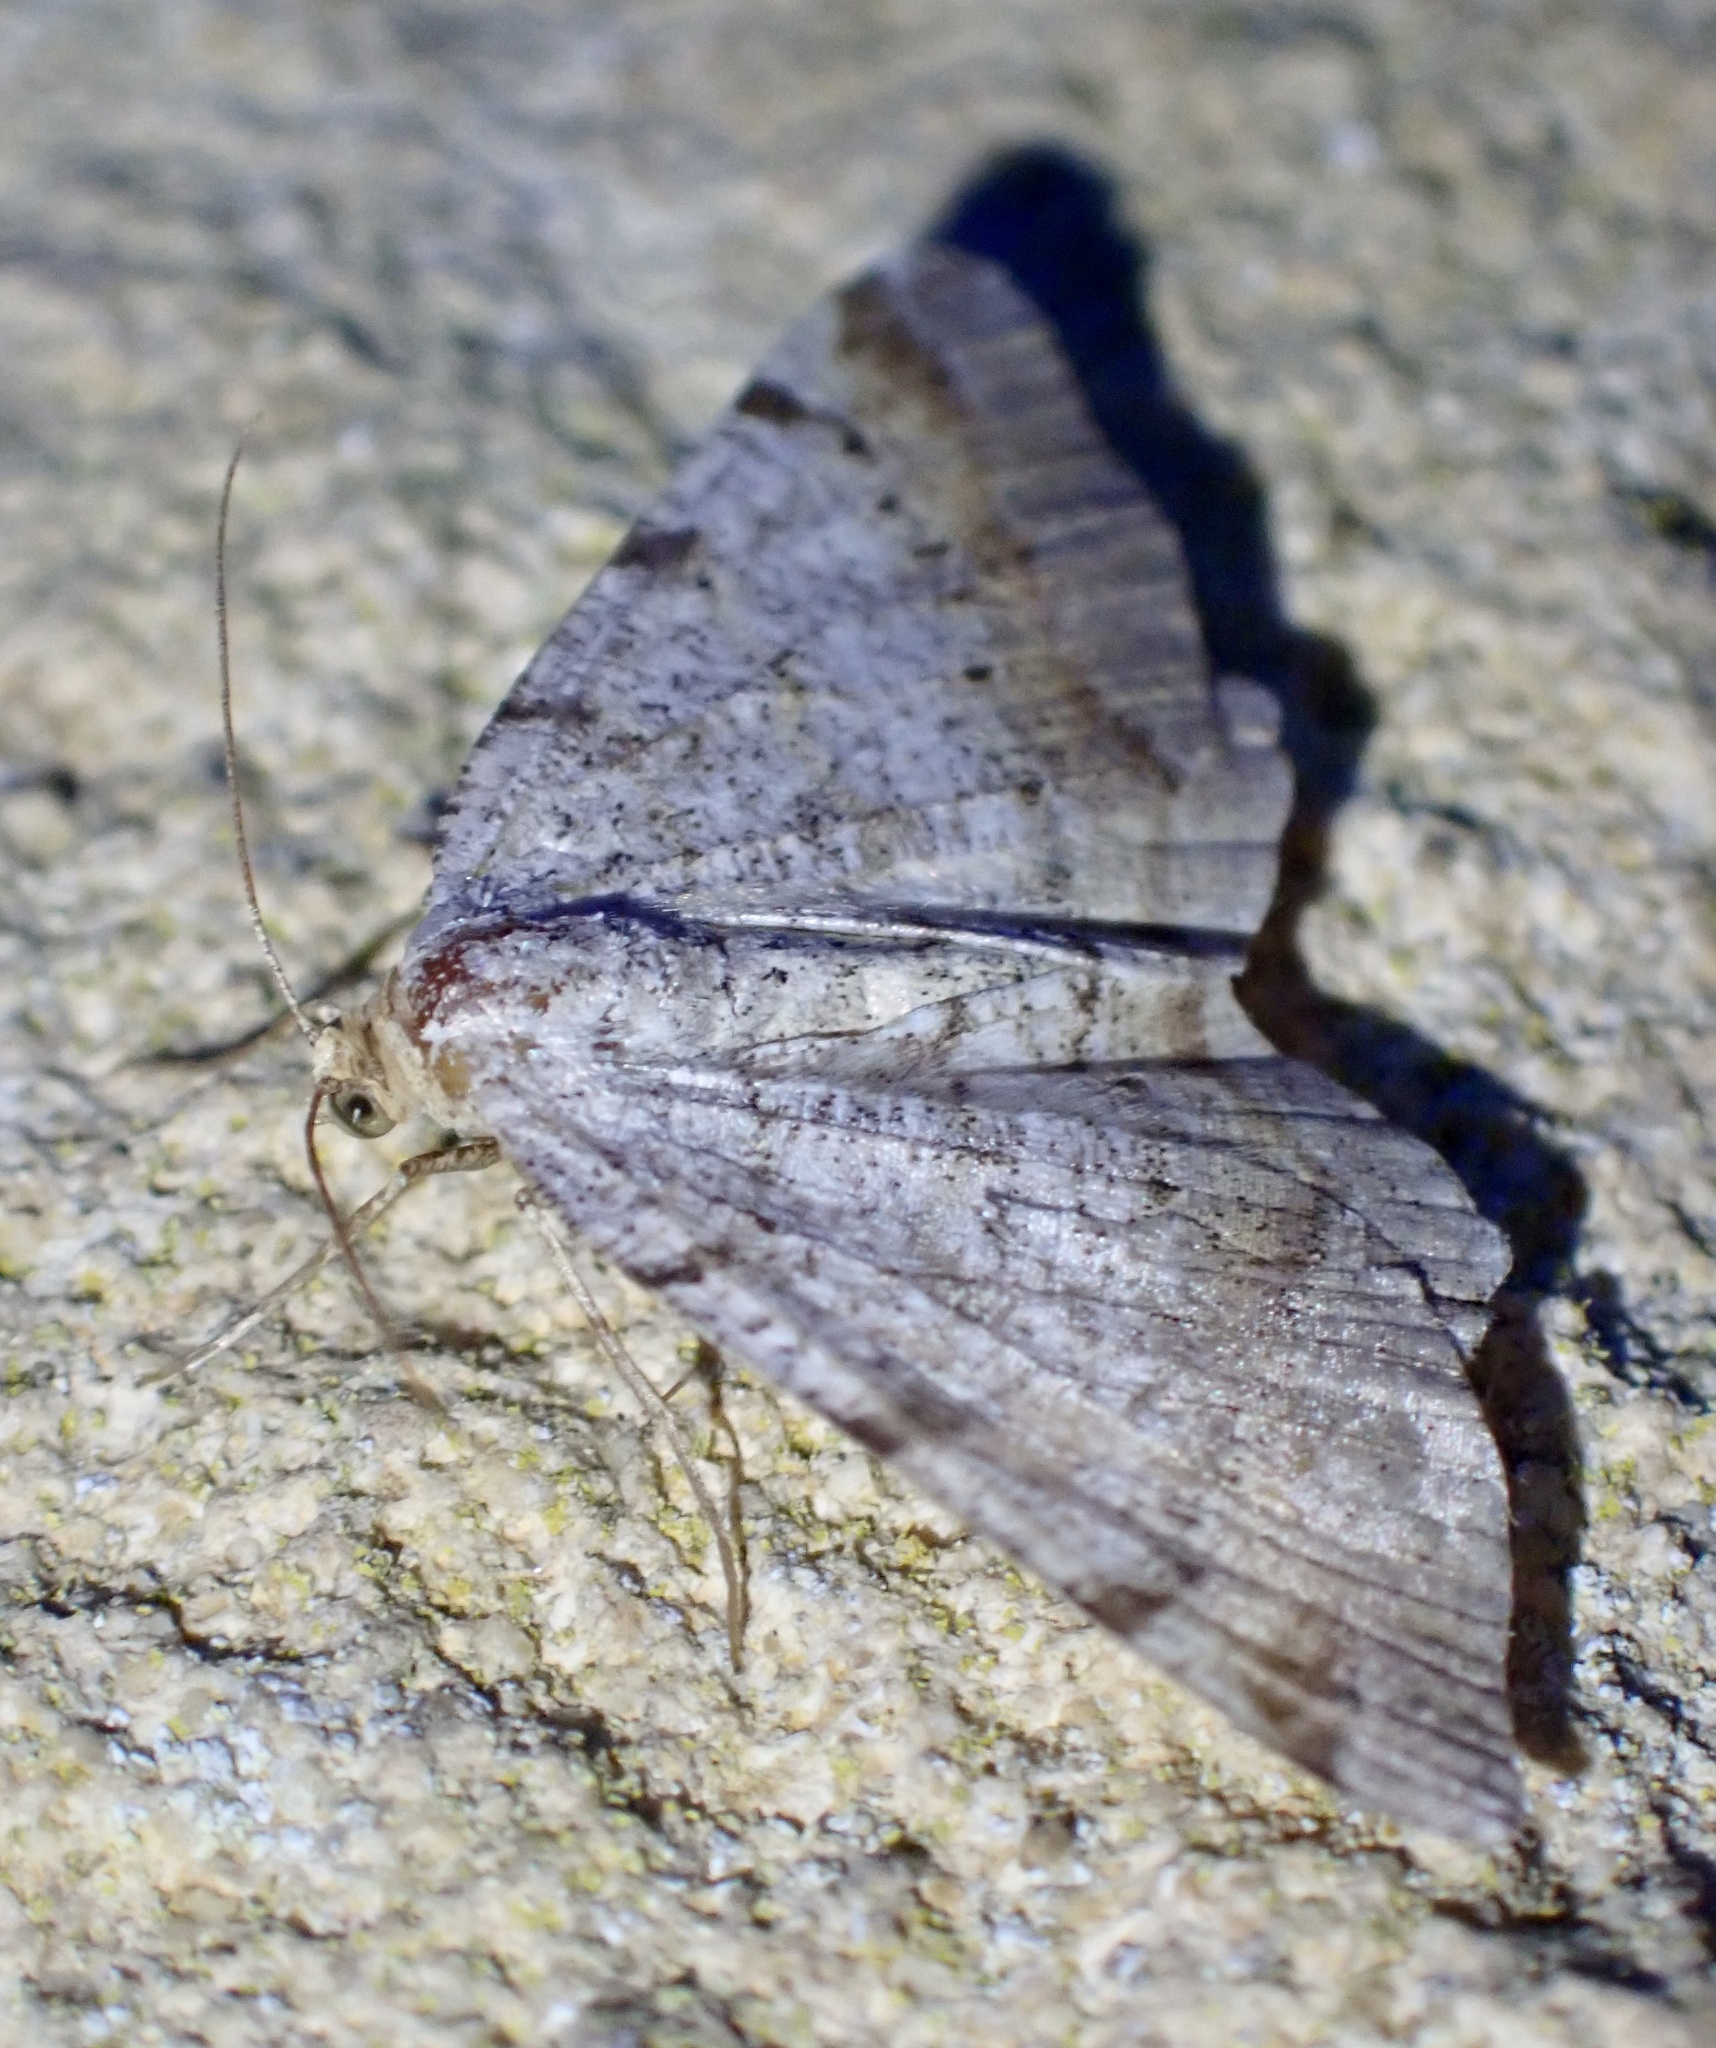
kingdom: Animalia
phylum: Arthropoda
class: Insecta
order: Lepidoptera
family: Geometridae
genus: Macaria
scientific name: Macaria liturata
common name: Tawny-barred angle
